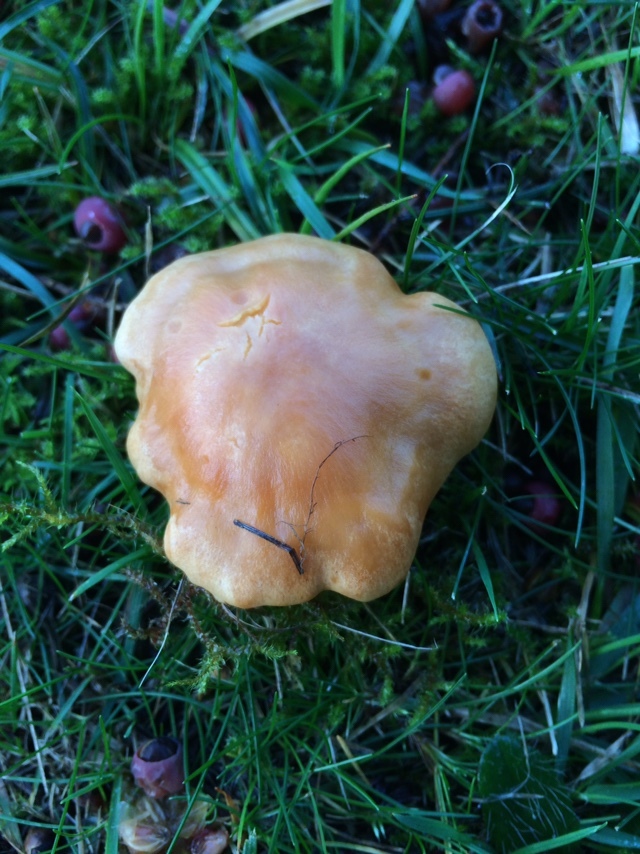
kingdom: Fungi
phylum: Basidiomycota
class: Agaricomycetes
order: Agaricales
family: Hygrophoraceae
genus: Cuphophyllus
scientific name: Cuphophyllus pratensis
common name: Meadow waxcap
